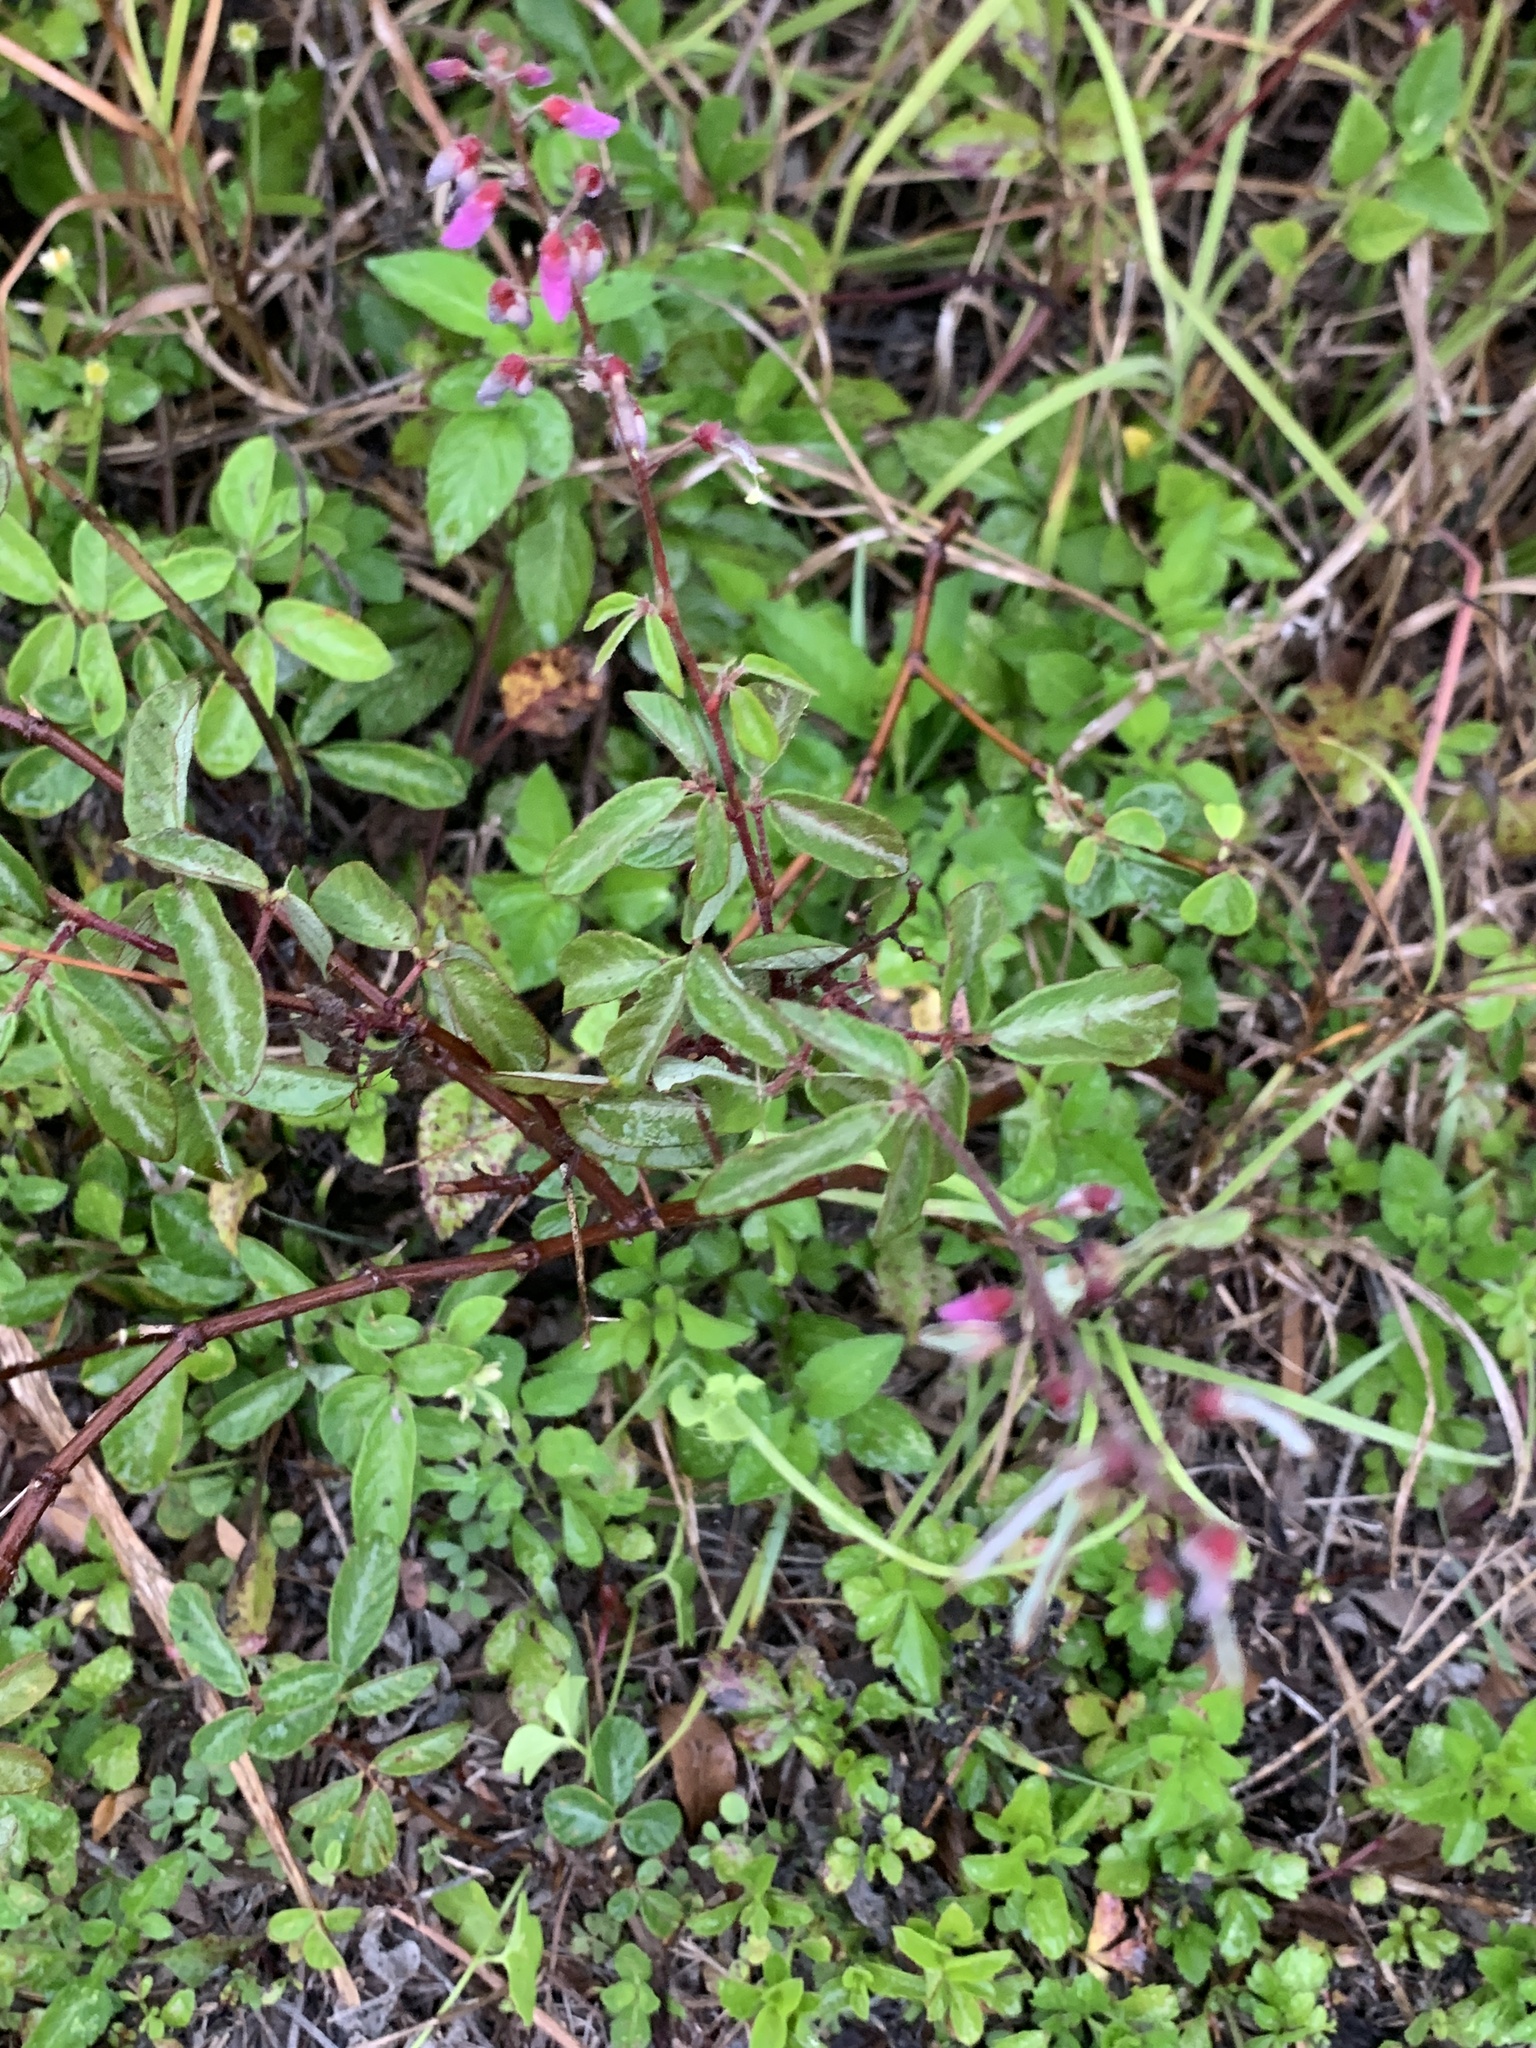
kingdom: Plantae
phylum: Tracheophyta
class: Magnoliopsida
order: Fabales
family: Fabaceae
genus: Desmodium
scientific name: Desmodium incanum
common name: Tickclover
